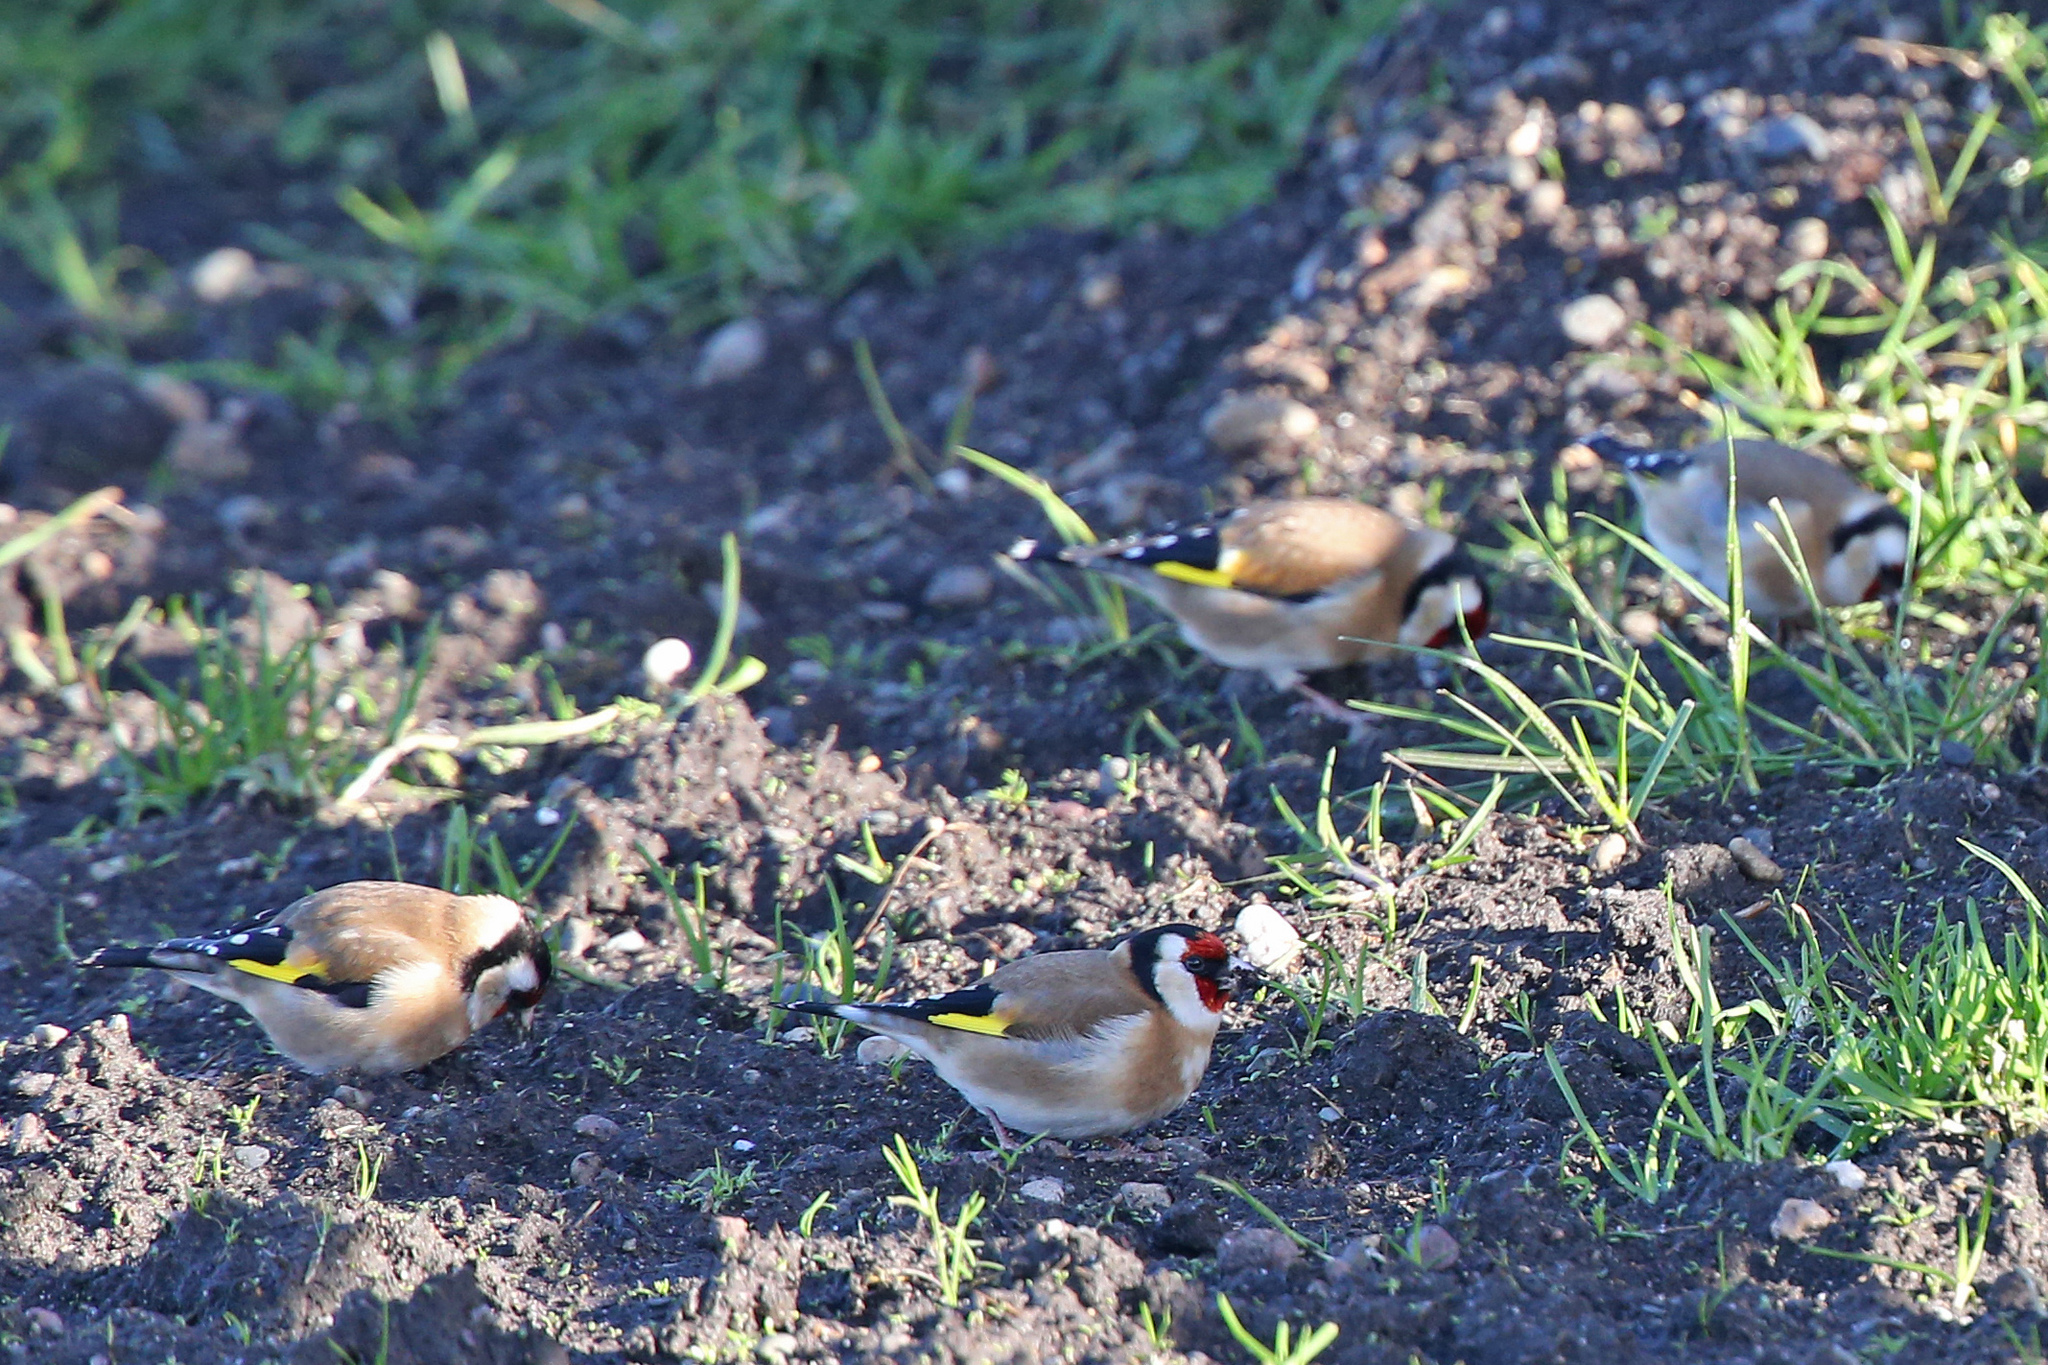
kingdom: Animalia
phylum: Chordata
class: Aves
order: Passeriformes
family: Fringillidae
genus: Carduelis
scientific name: Carduelis carduelis
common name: European goldfinch
